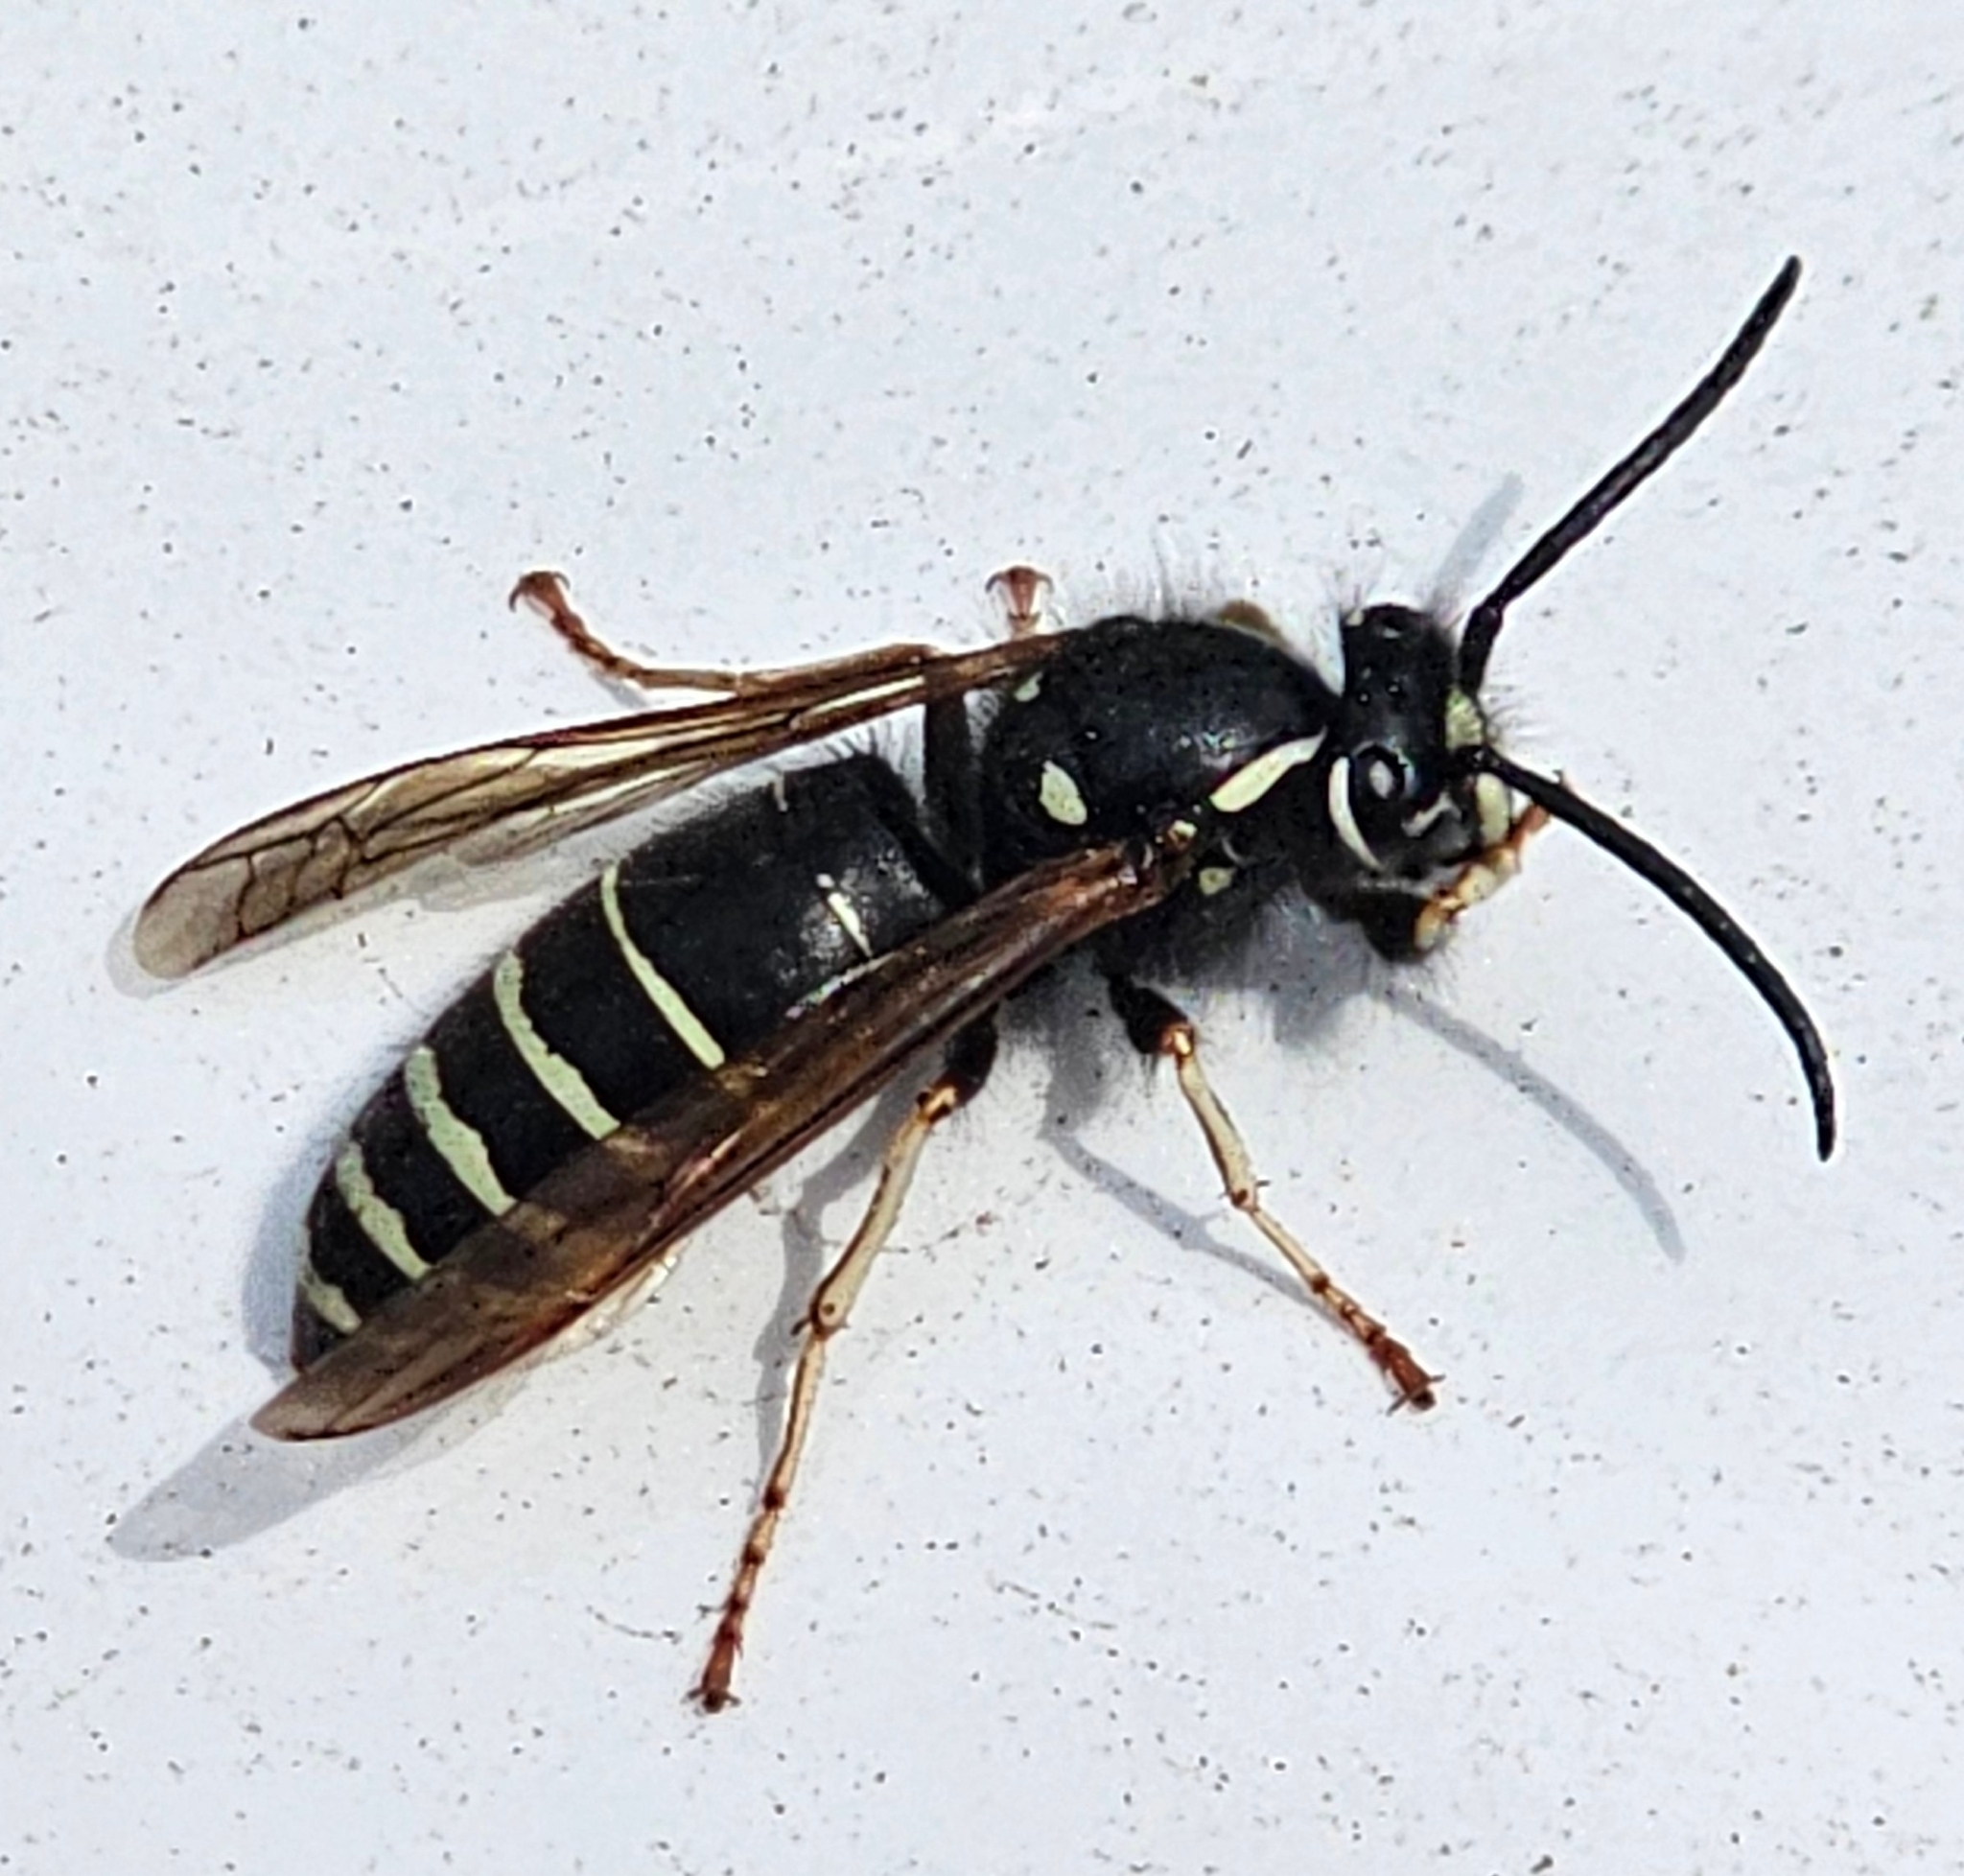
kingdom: Animalia
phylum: Arthropoda
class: Insecta
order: Hymenoptera
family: Vespidae
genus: Vespula
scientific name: Vespula consobrina
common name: Blackjacket
